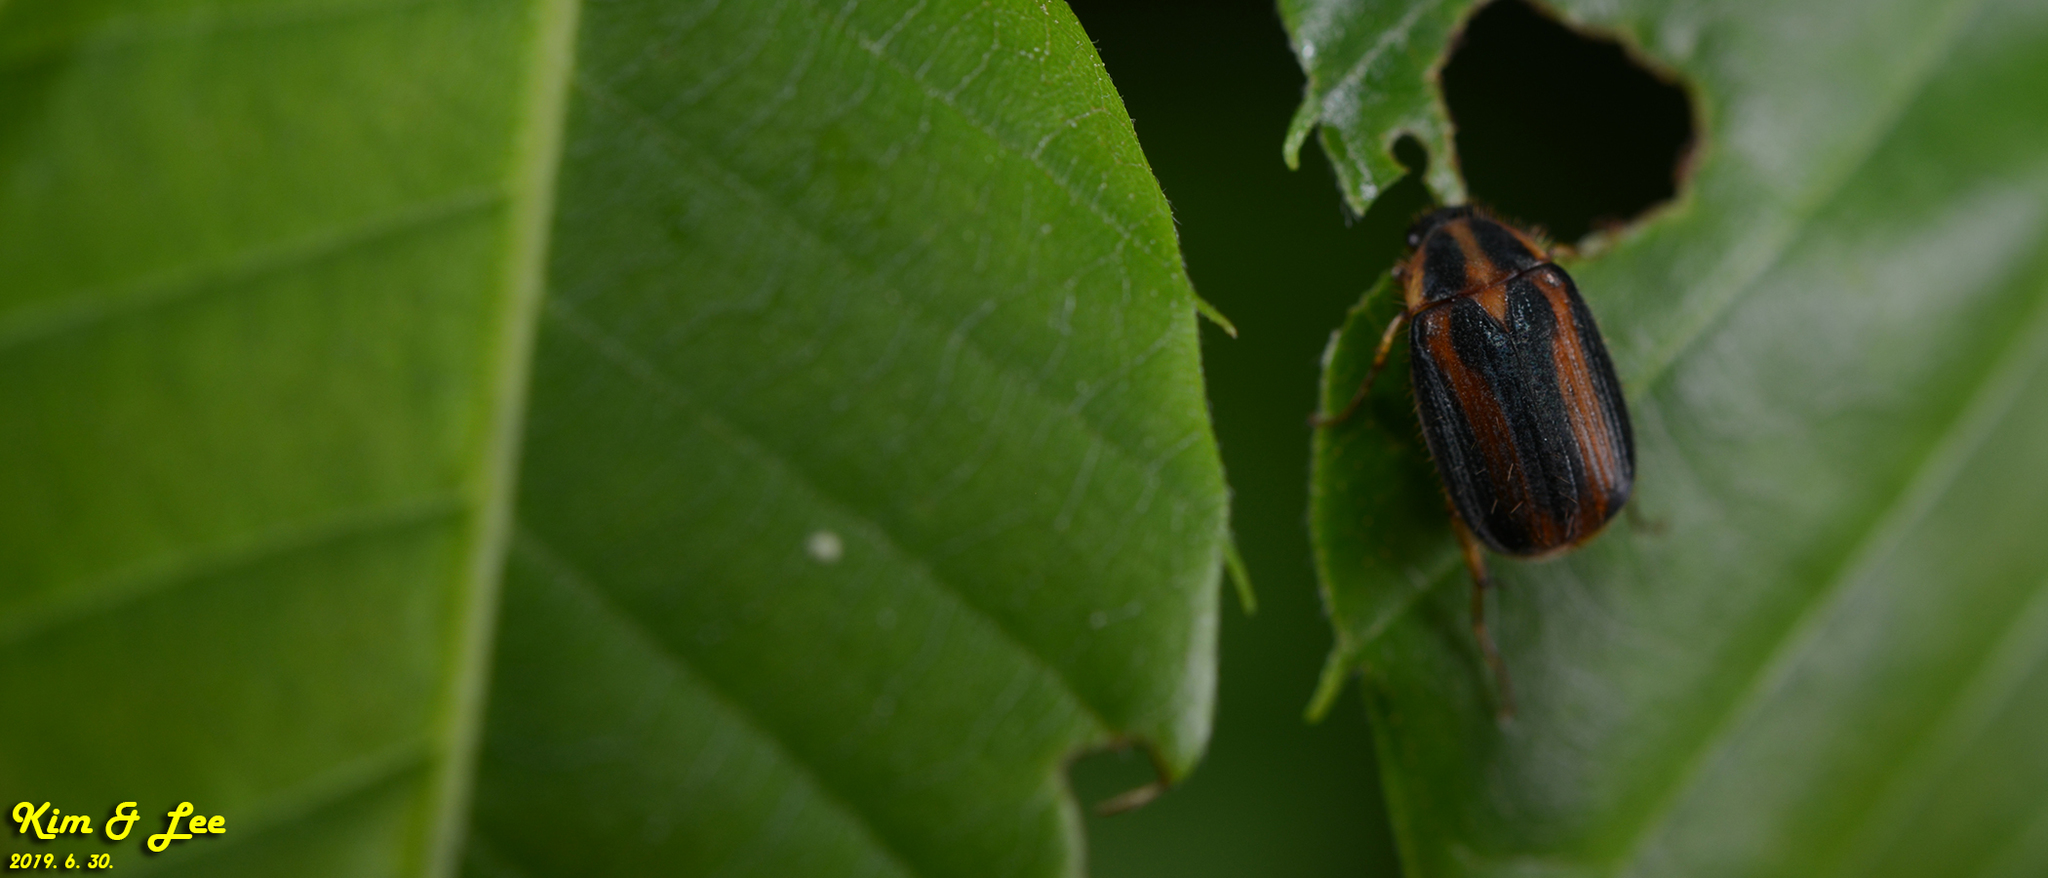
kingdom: Animalia
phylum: Arthropoda
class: Insecta
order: Coleoptera
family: Scarabaeidae
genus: Gastroserica
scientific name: Gastroserica herzi
